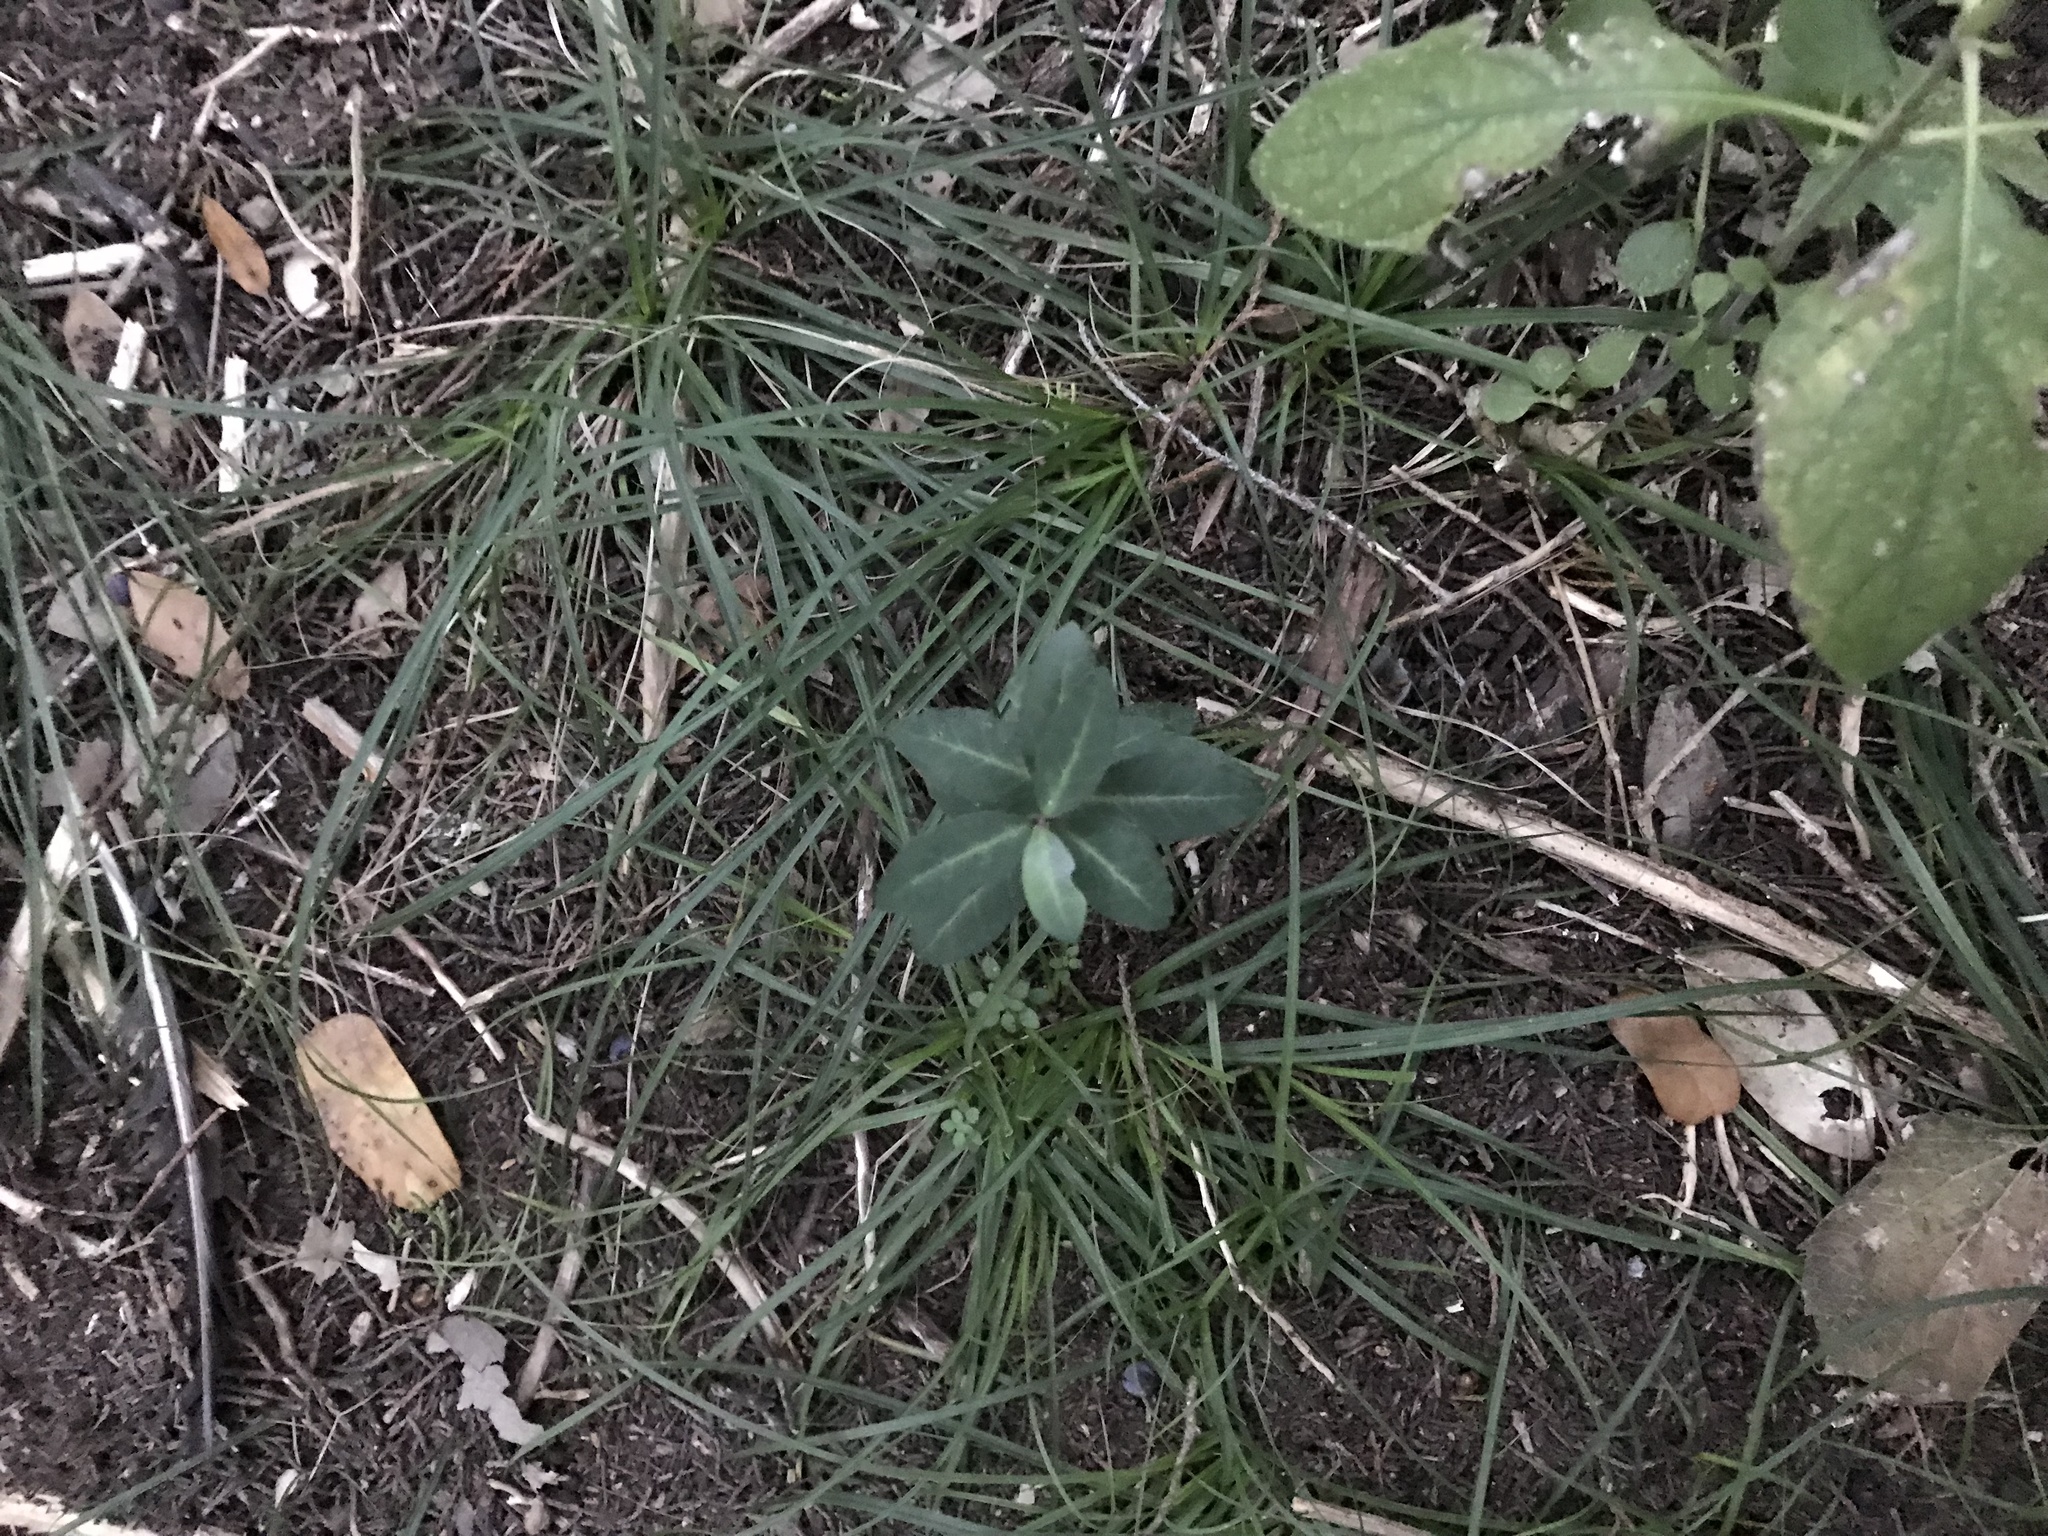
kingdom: Plantae
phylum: Tracheophyta
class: Magnoliopsida
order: Aquifoliales
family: Aquifoliaceae
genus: Ilex
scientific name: Ilex vomitoria
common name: Yaupon holly
